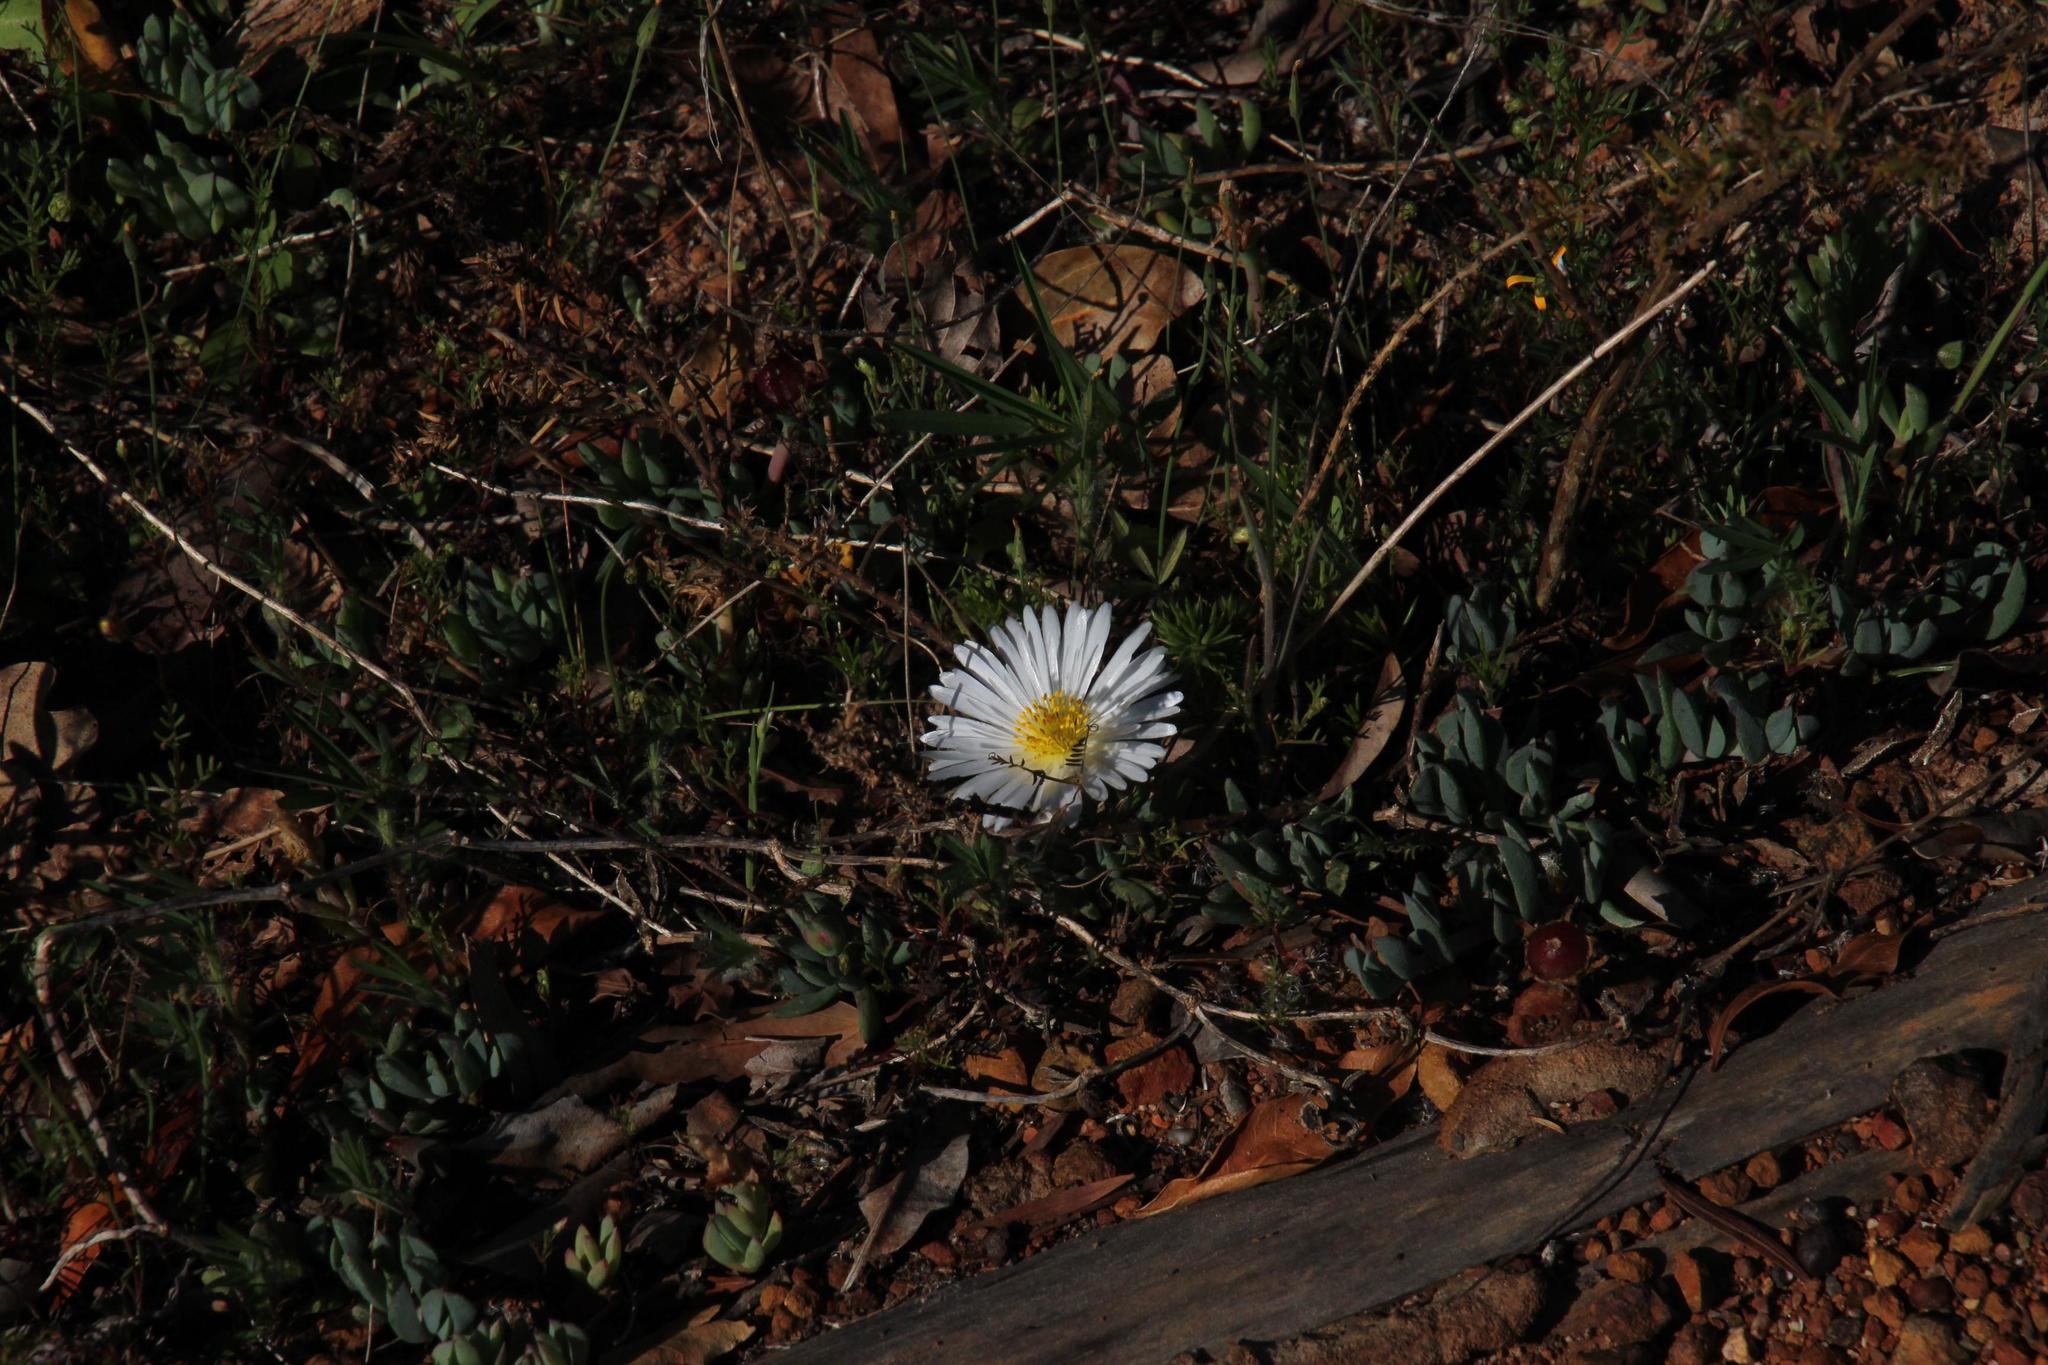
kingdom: Plantae
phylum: Tracheophyta
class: Magnoliopsida
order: Caryophyllales
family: Aizoaceae
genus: Lampranthus
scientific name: Lampranthus reptans
